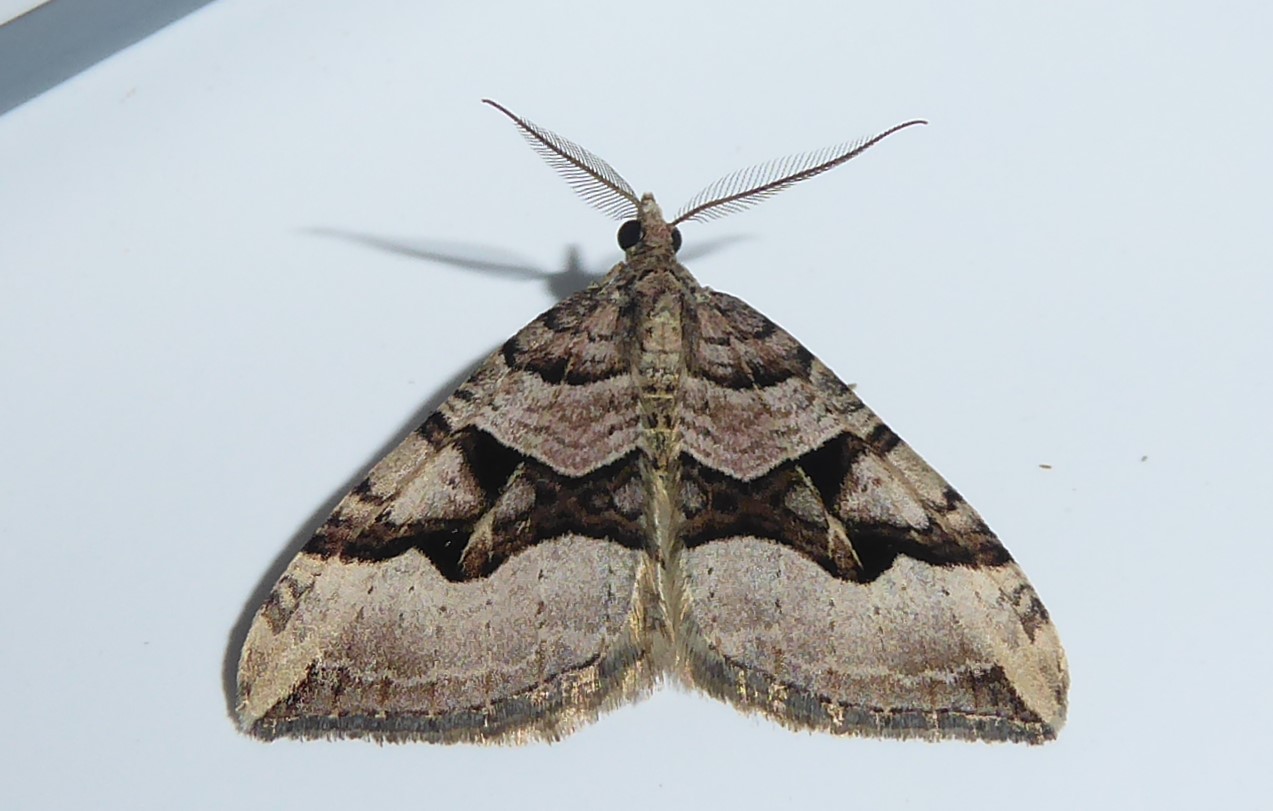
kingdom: Animalia
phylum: Arthropoda
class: Insecta
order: Lepidoptera
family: Geometridae
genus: Xanthorhoe
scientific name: Xanthorhoe semifissata
